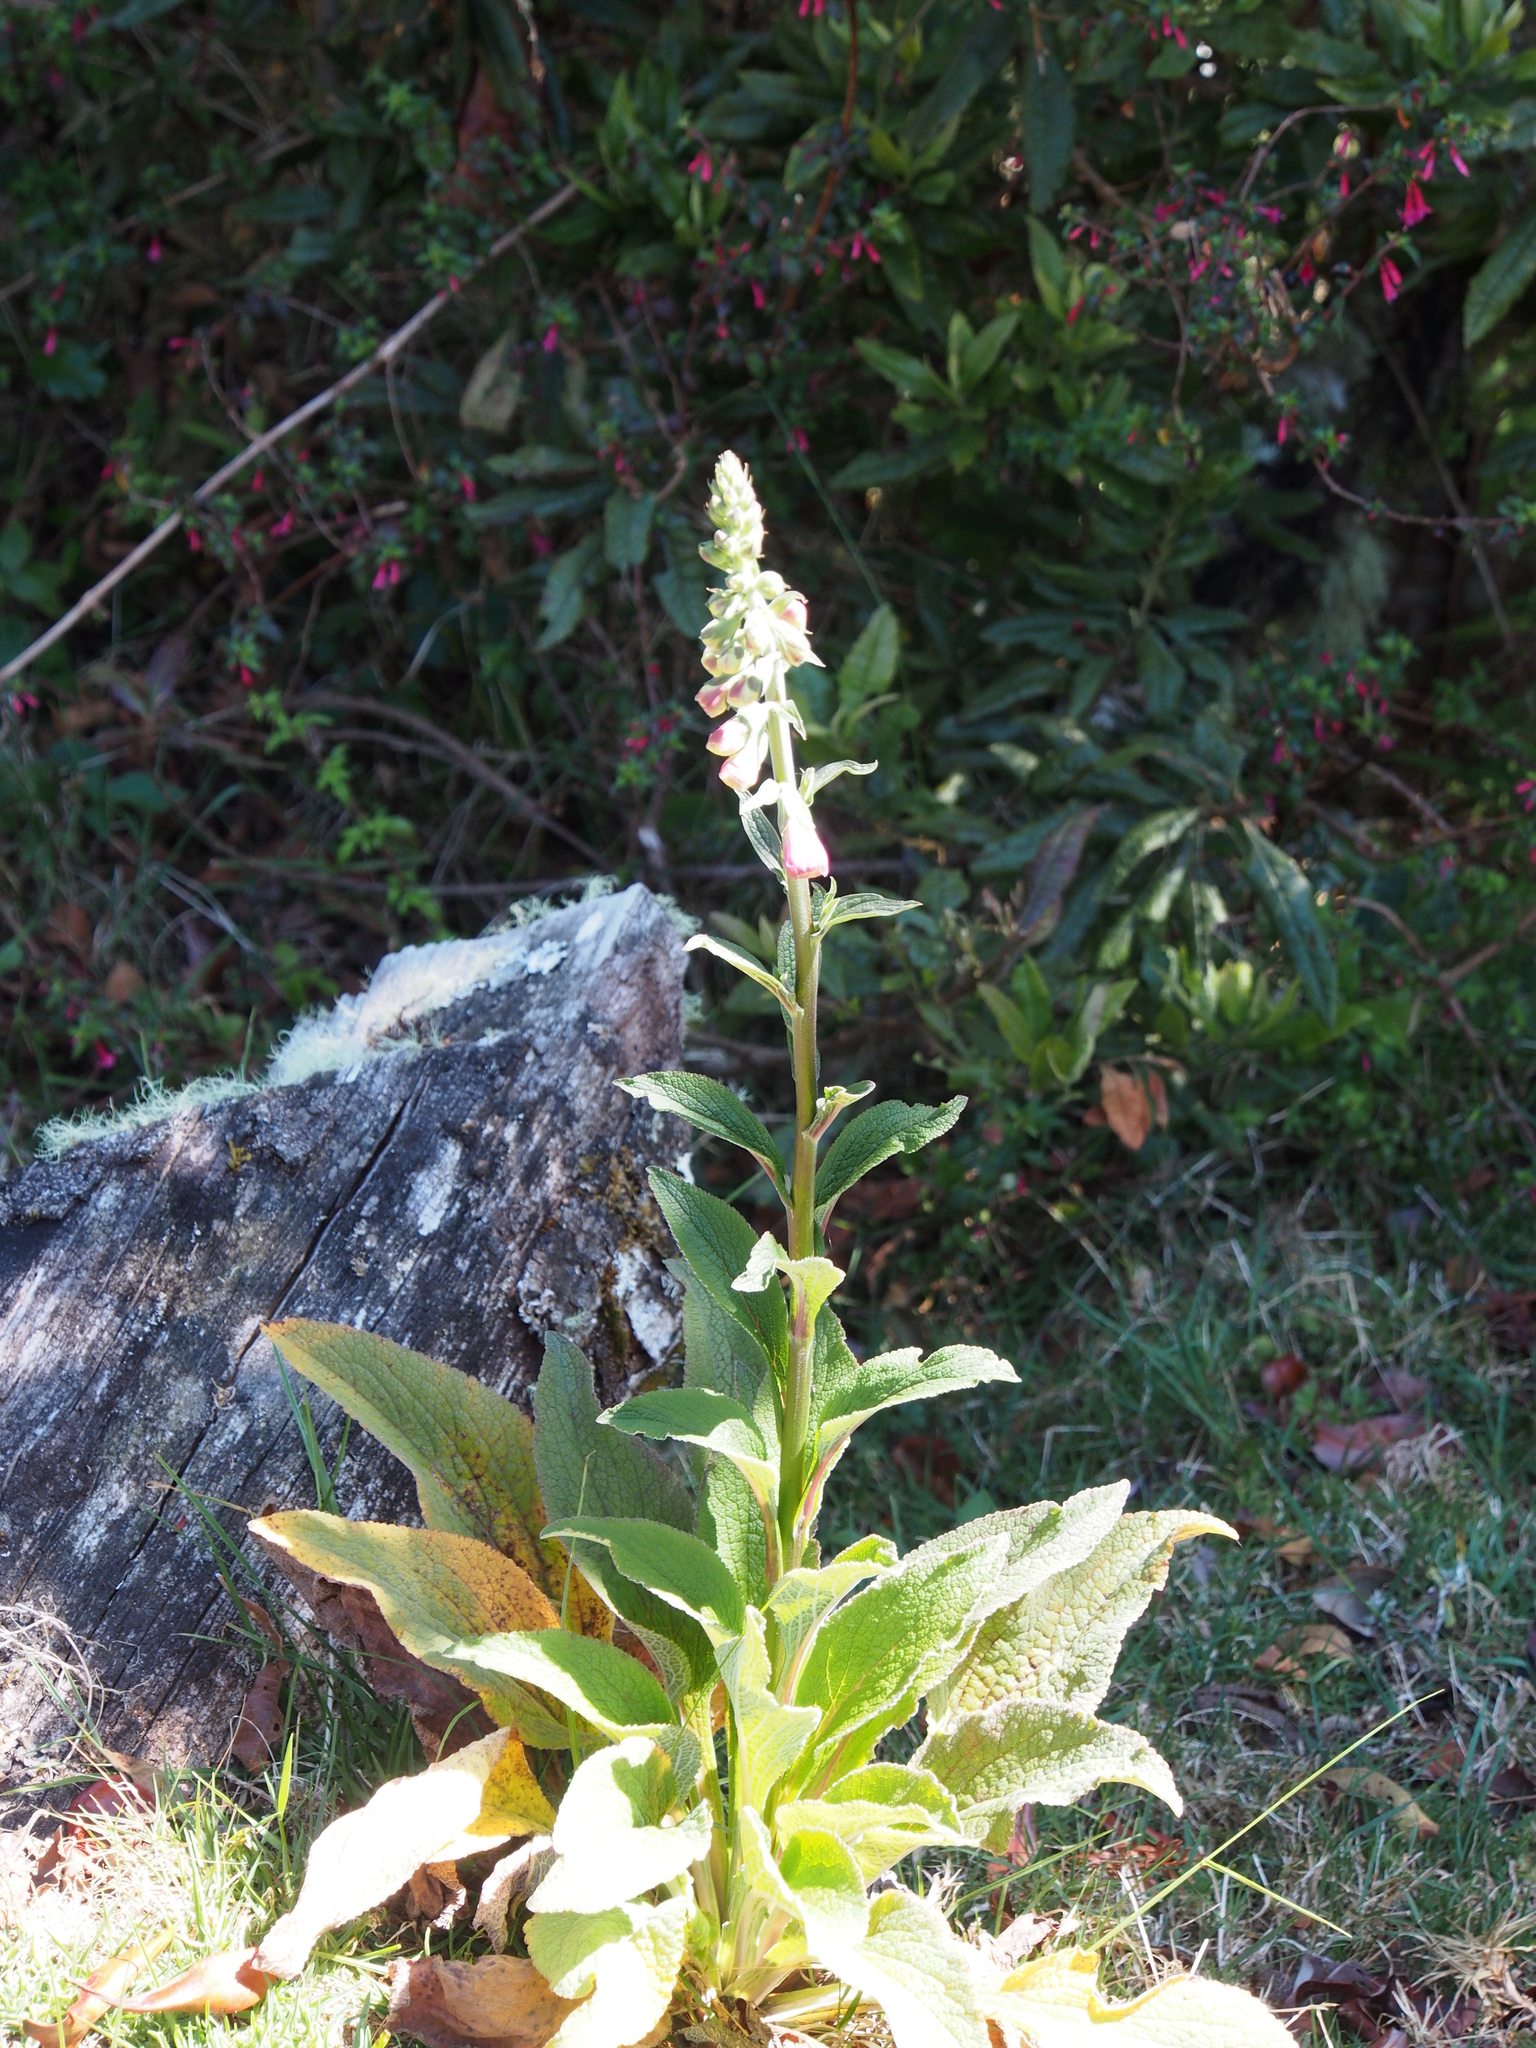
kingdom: Plantae
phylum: Tracheophyta
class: Magnoliopsida
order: Lamiales
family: Plantaginaceae
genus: Digitalis
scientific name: Digitalis purpurea
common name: Foxglove
